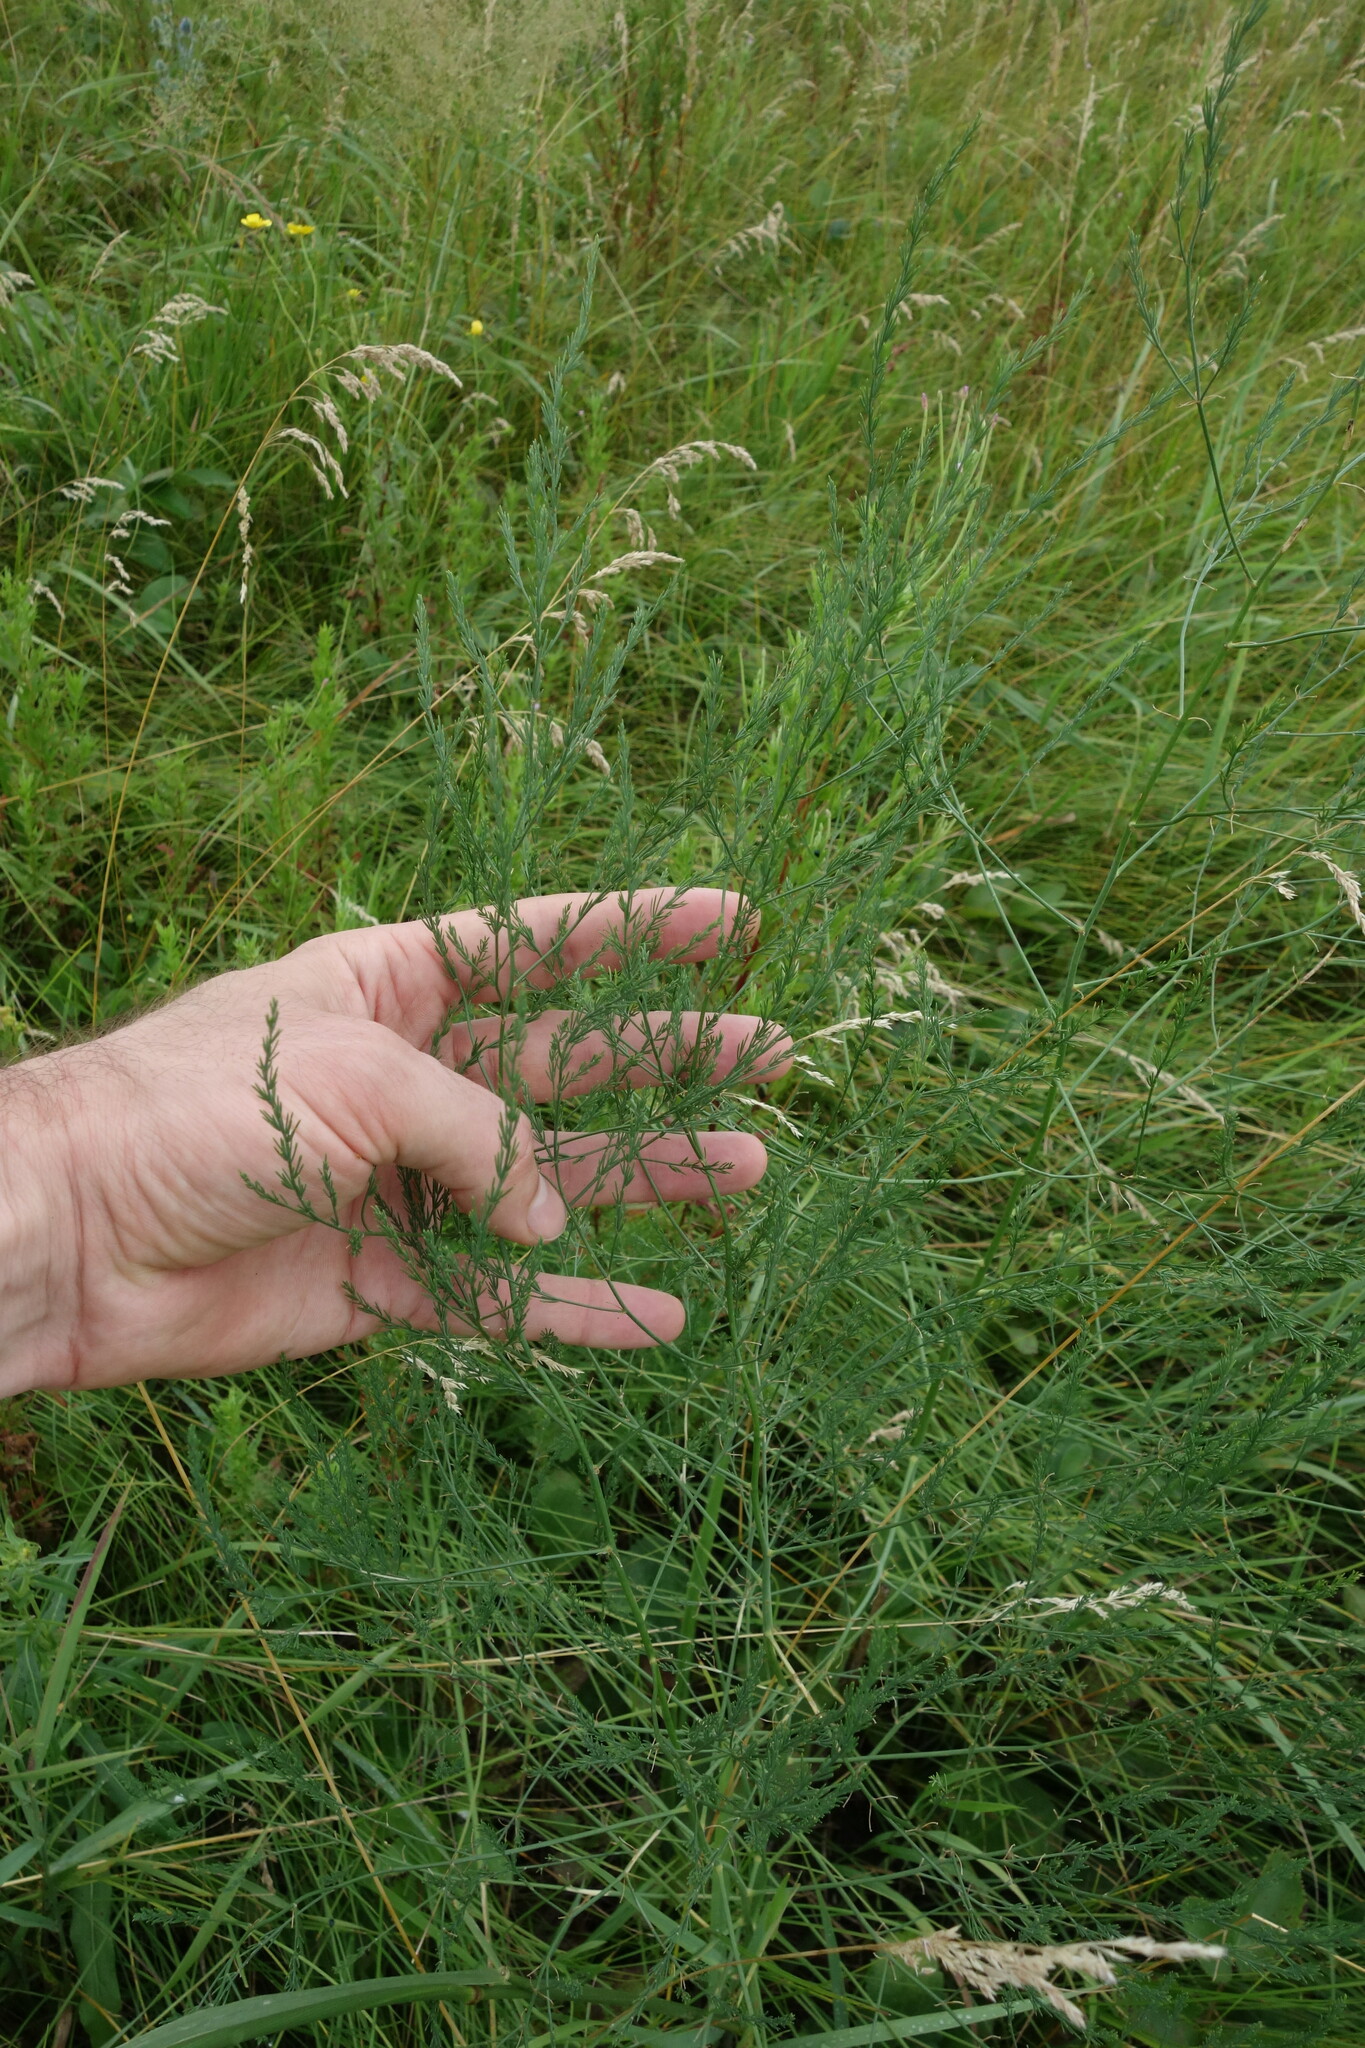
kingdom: Plantae
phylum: Tracheophyta
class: Liliopsida
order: Asparagales
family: Asparagaceae
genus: Asparagus
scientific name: Asparagus officinalis
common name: Garden asparagus
